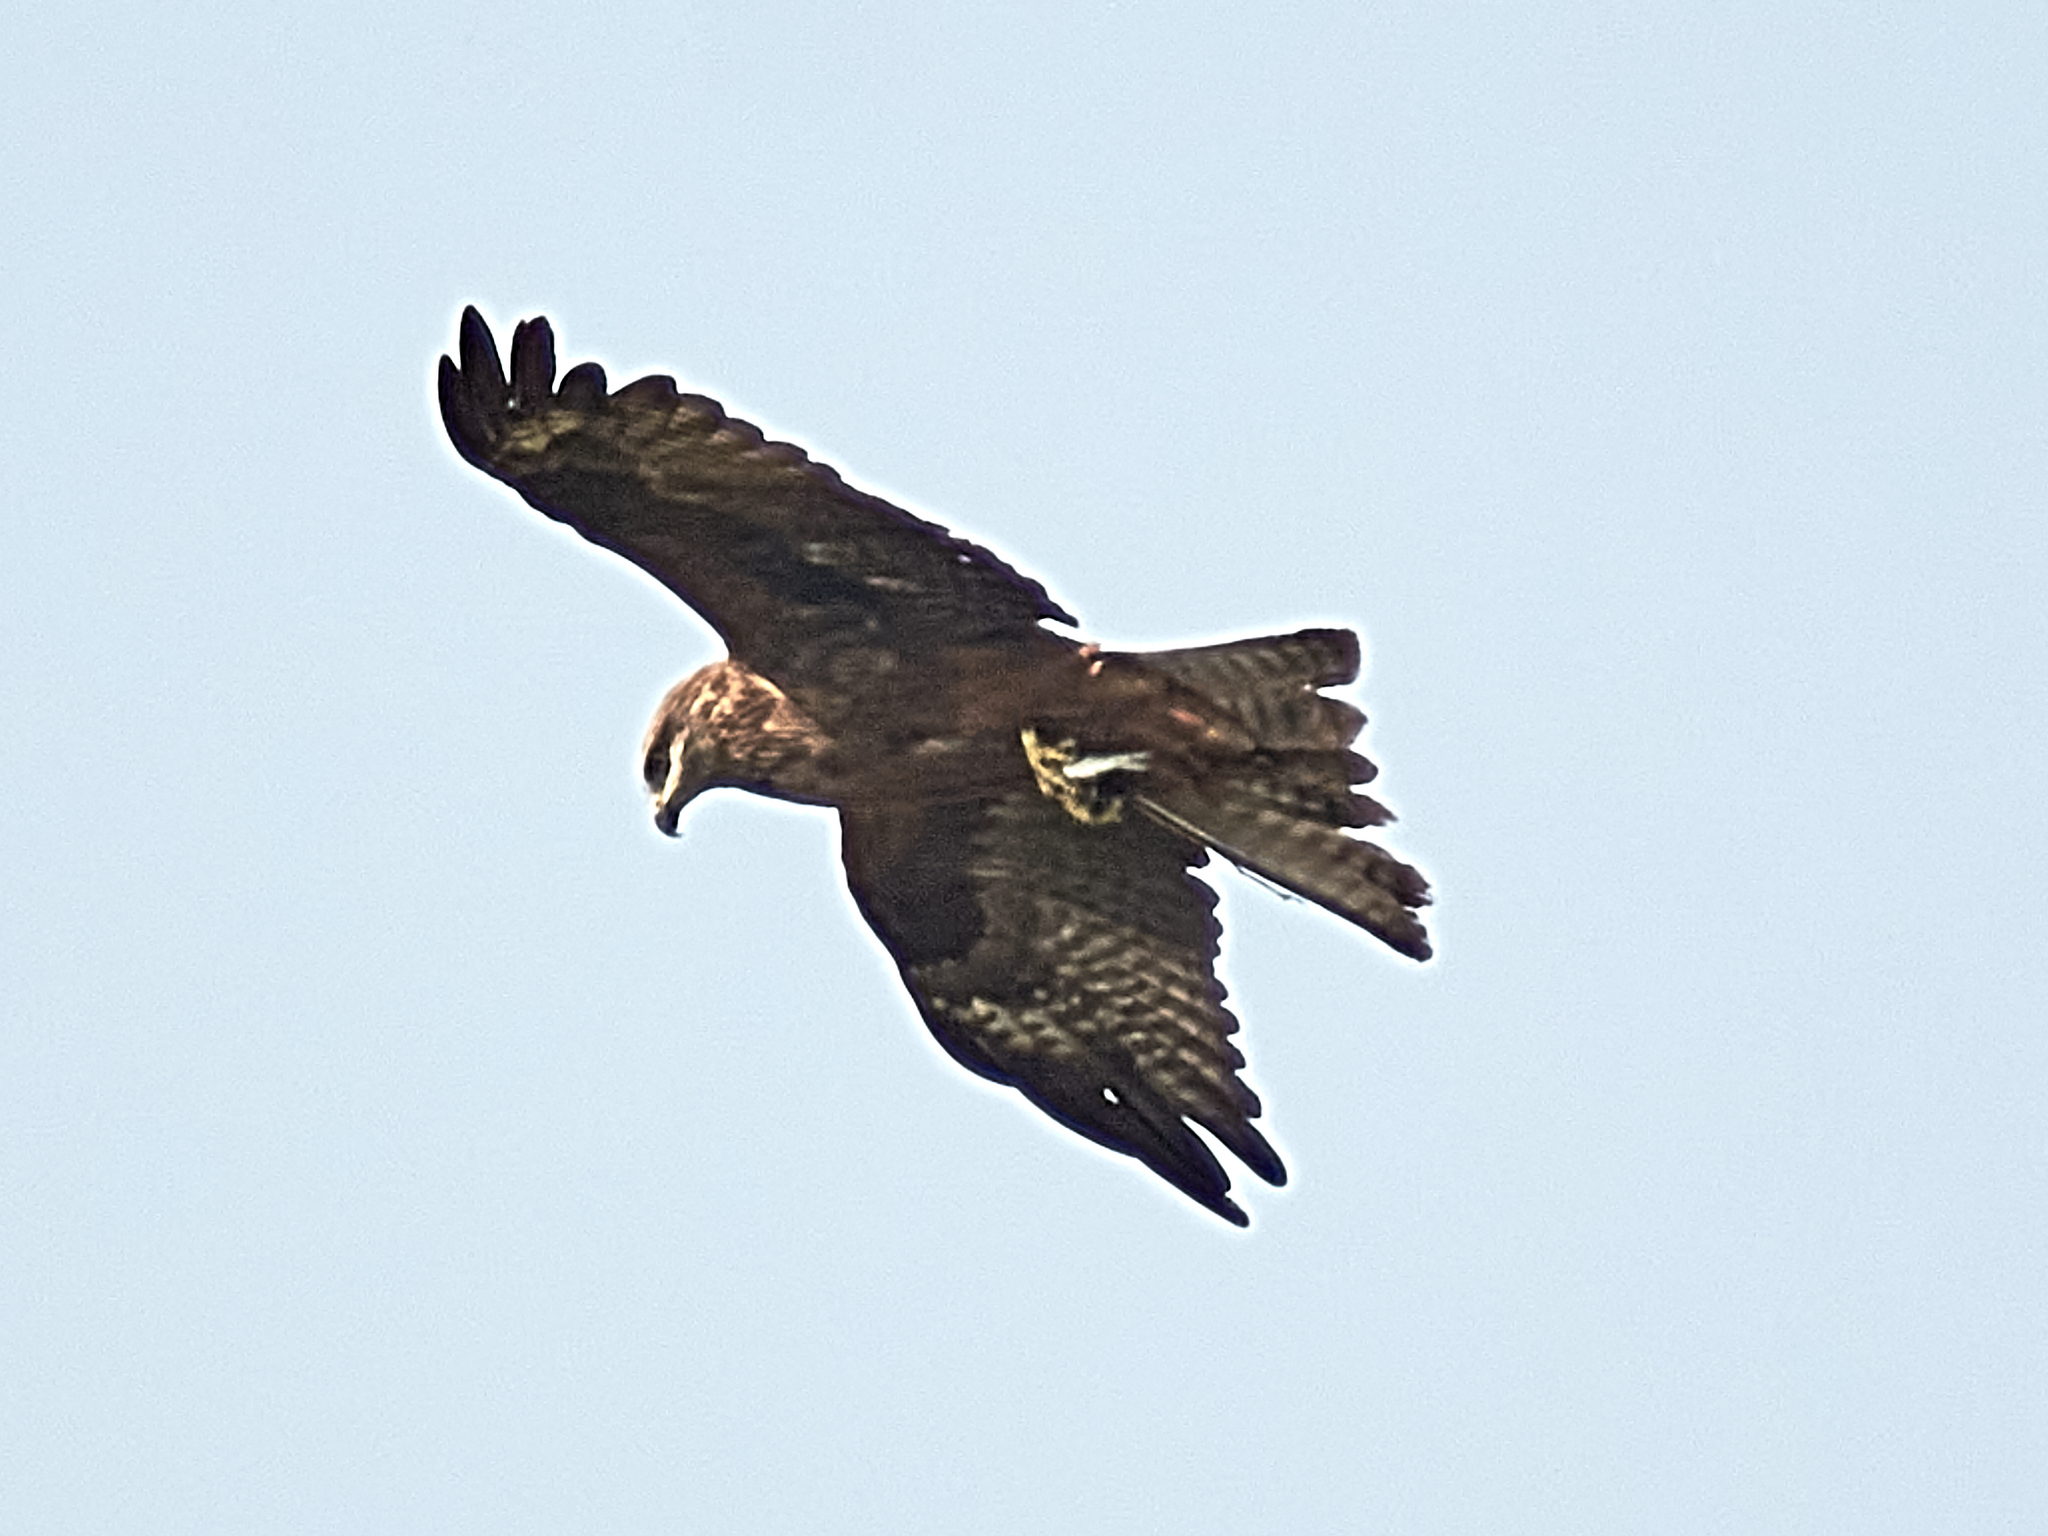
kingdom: Animalia
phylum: Chordata
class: Aves
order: Accipitriformes
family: Accipitridae
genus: Milvus
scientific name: Milvus migrans
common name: Black kite
